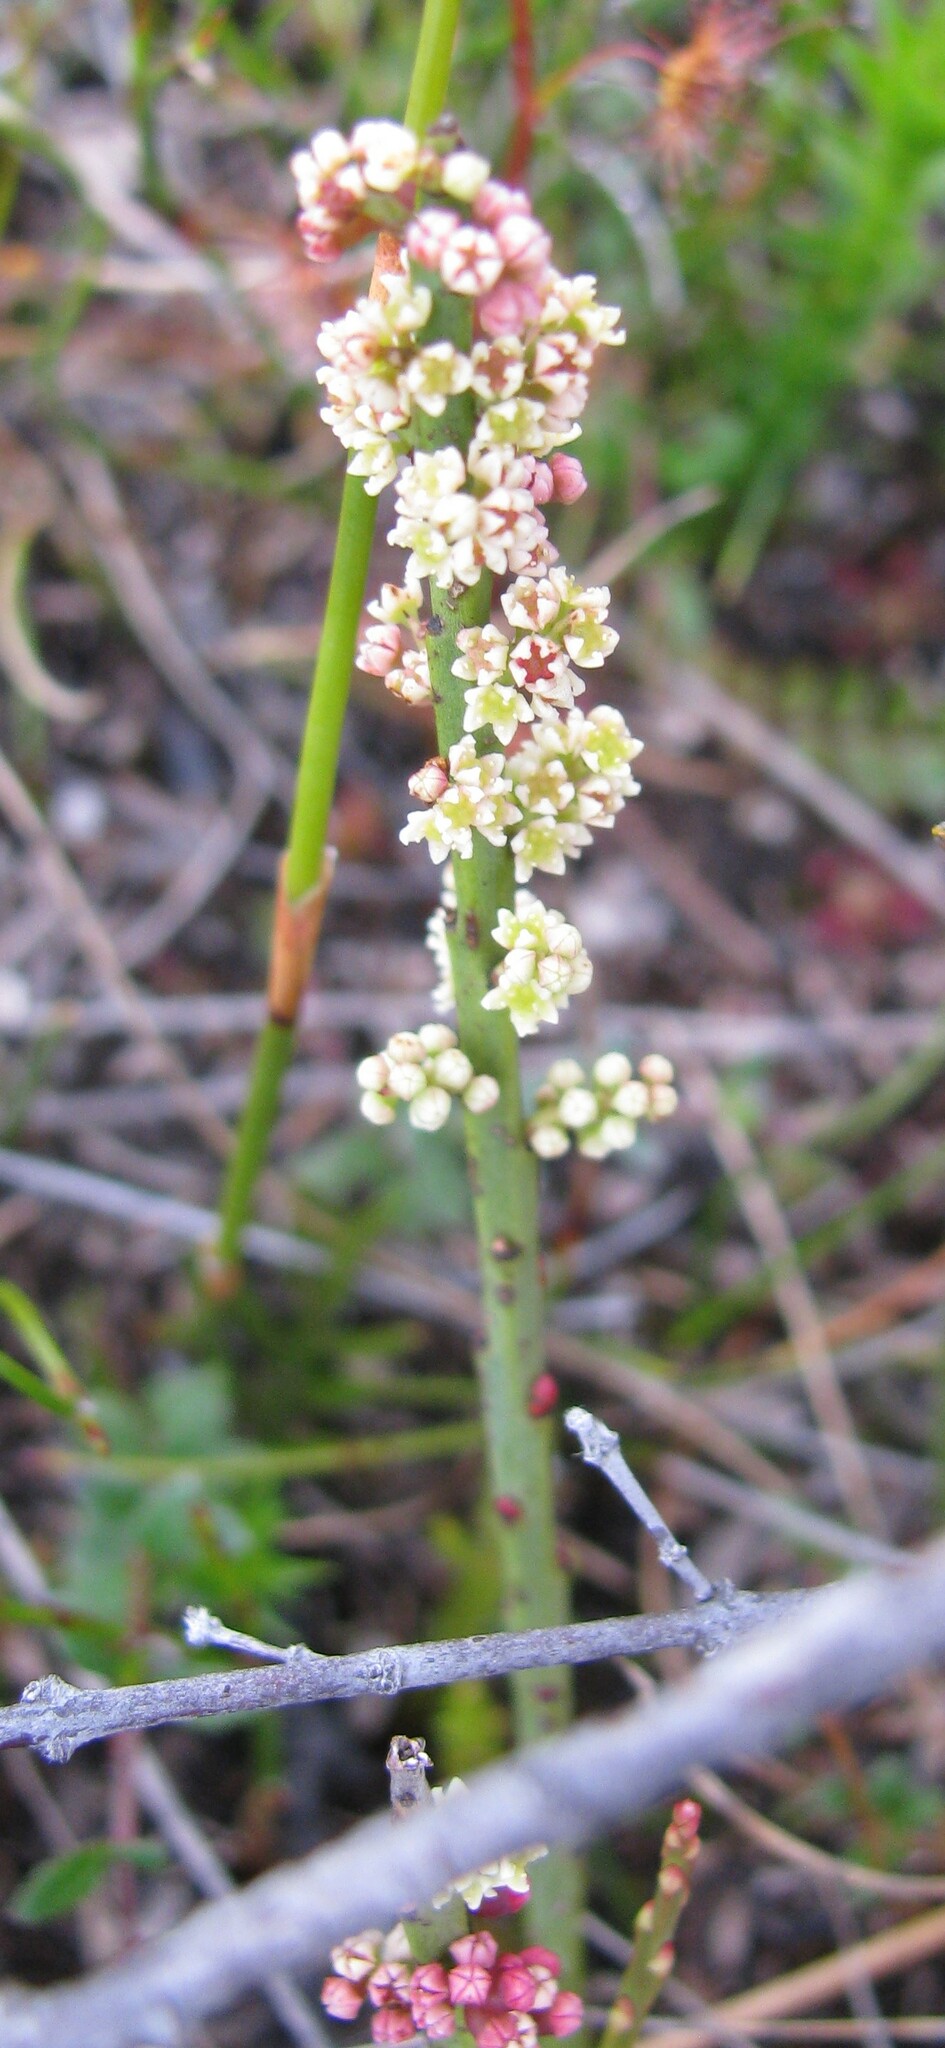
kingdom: Plantae
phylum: Tracheophyta
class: Magnoliopsida
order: Santalales
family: Amphorogynaceae
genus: Leptomeria
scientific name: Leptomeria glomerata
